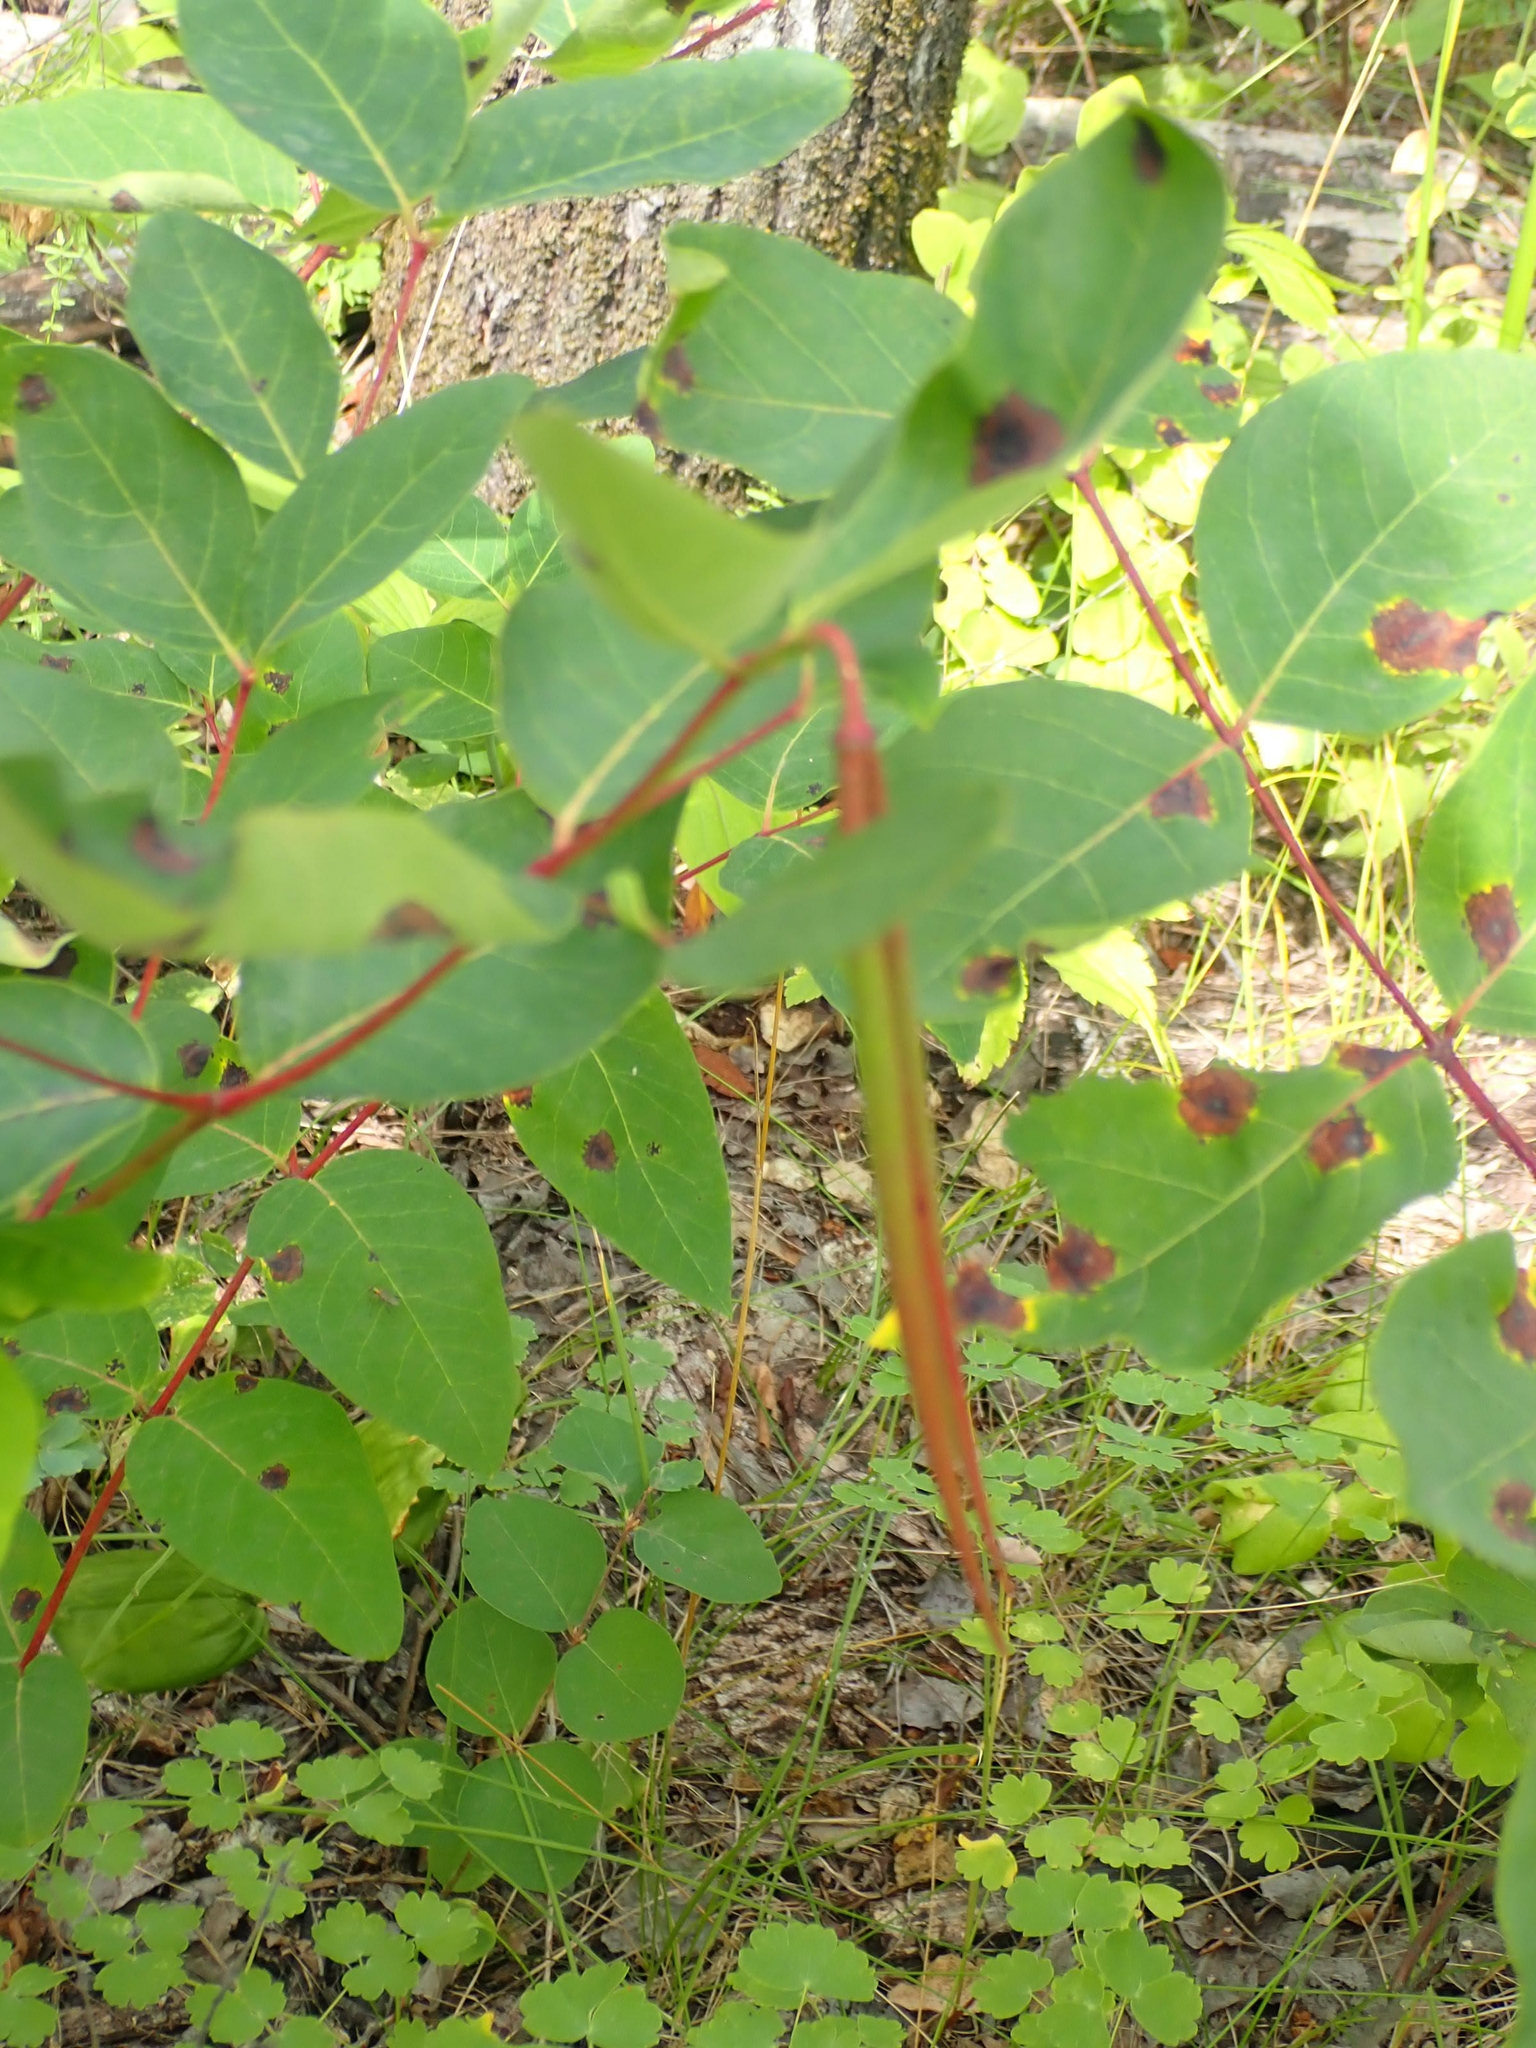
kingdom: Plantae
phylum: Tracheophyta
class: Magnoliopsida
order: Gentianales
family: Apocynaceae
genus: Apocynum
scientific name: Apocynum androsaemifolium
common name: Spreading dogbane
